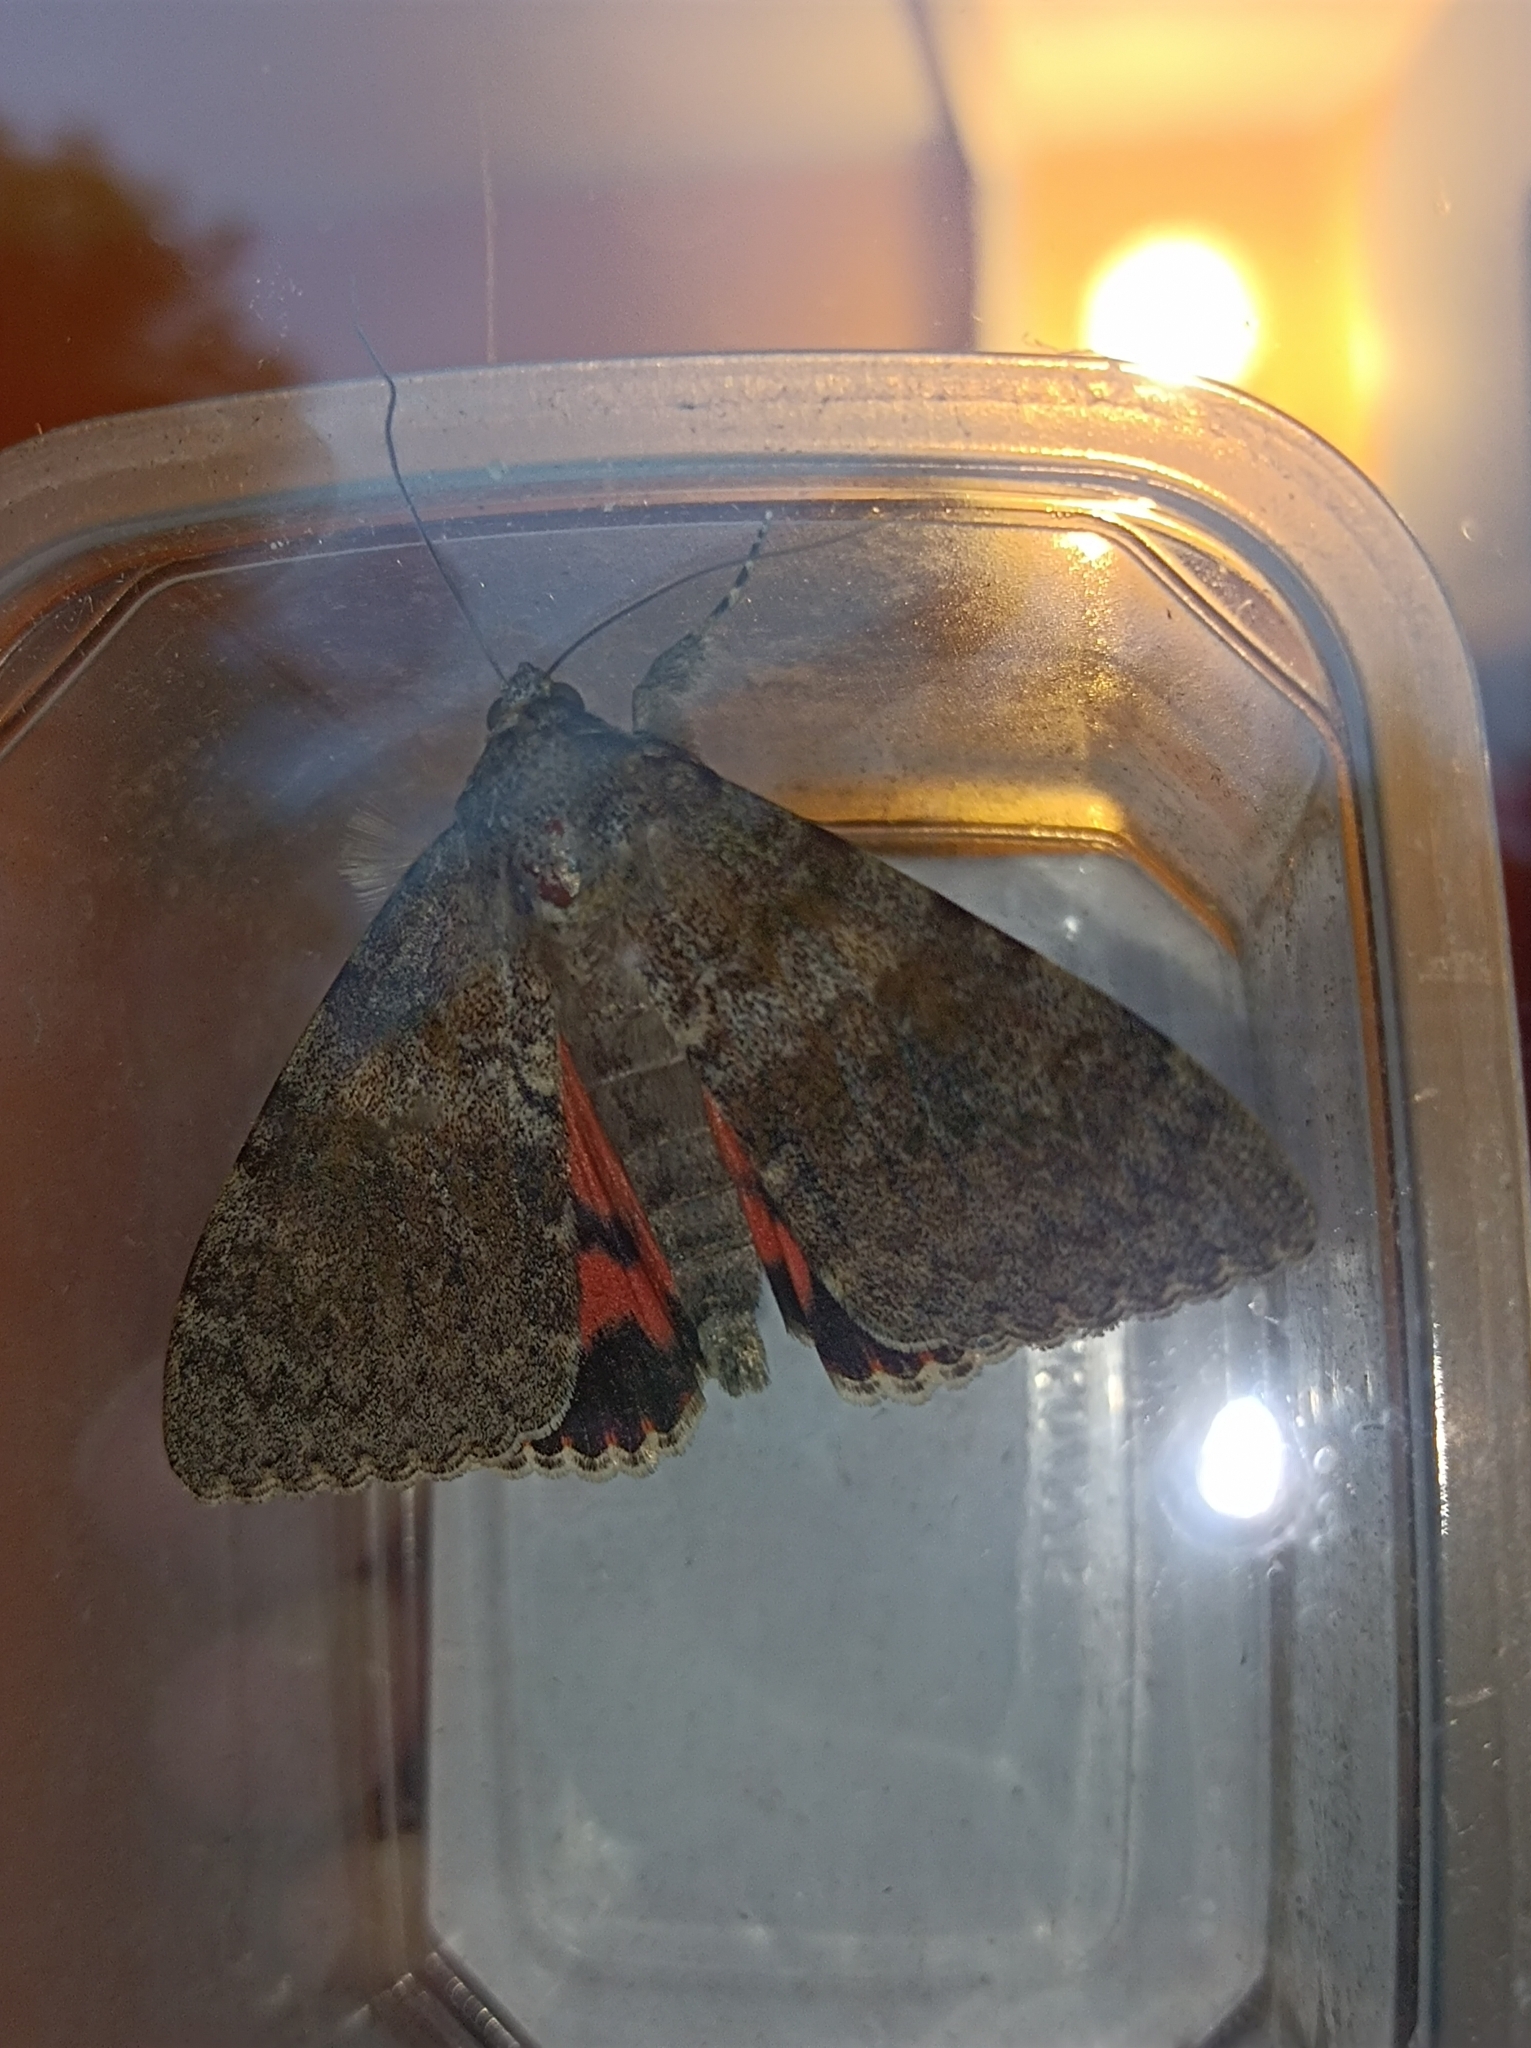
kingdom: Animalia
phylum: Arthropoda
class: Insecta
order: Lepidoptera
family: Erebidae
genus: Catocala
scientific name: Catocala elocata
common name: French red underwing
